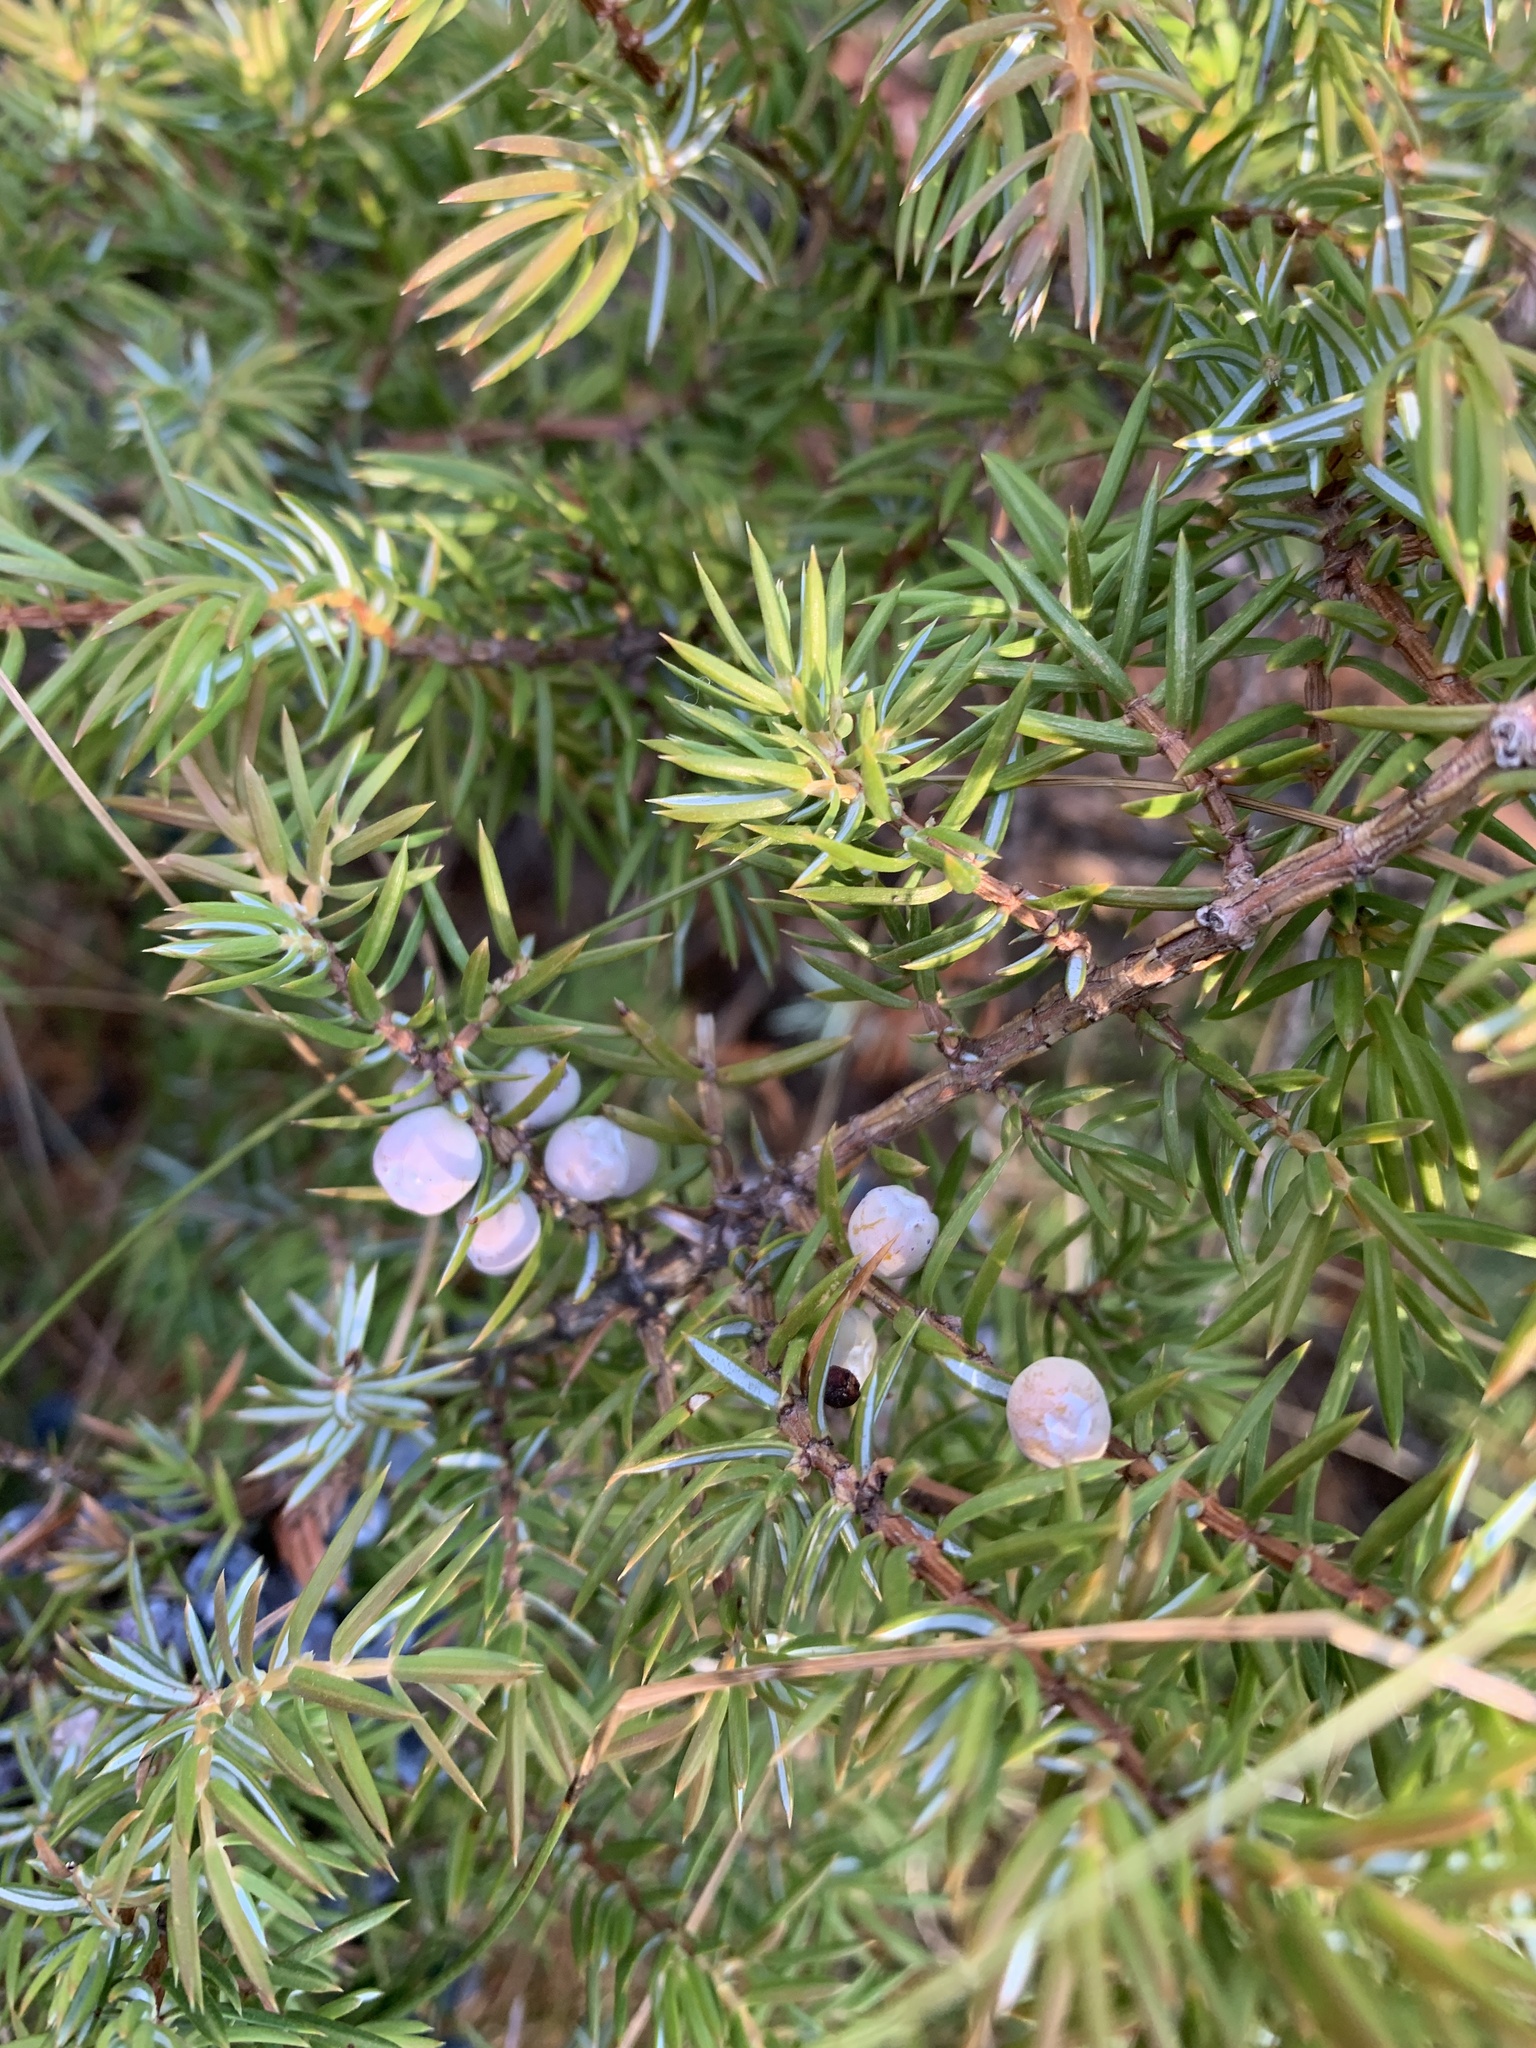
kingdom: Plantae
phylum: Tracheophyta
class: Pinopsida
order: Pinales
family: Cupressaceae
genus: Juniperus
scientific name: Juniperus communis
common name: Common juniper
